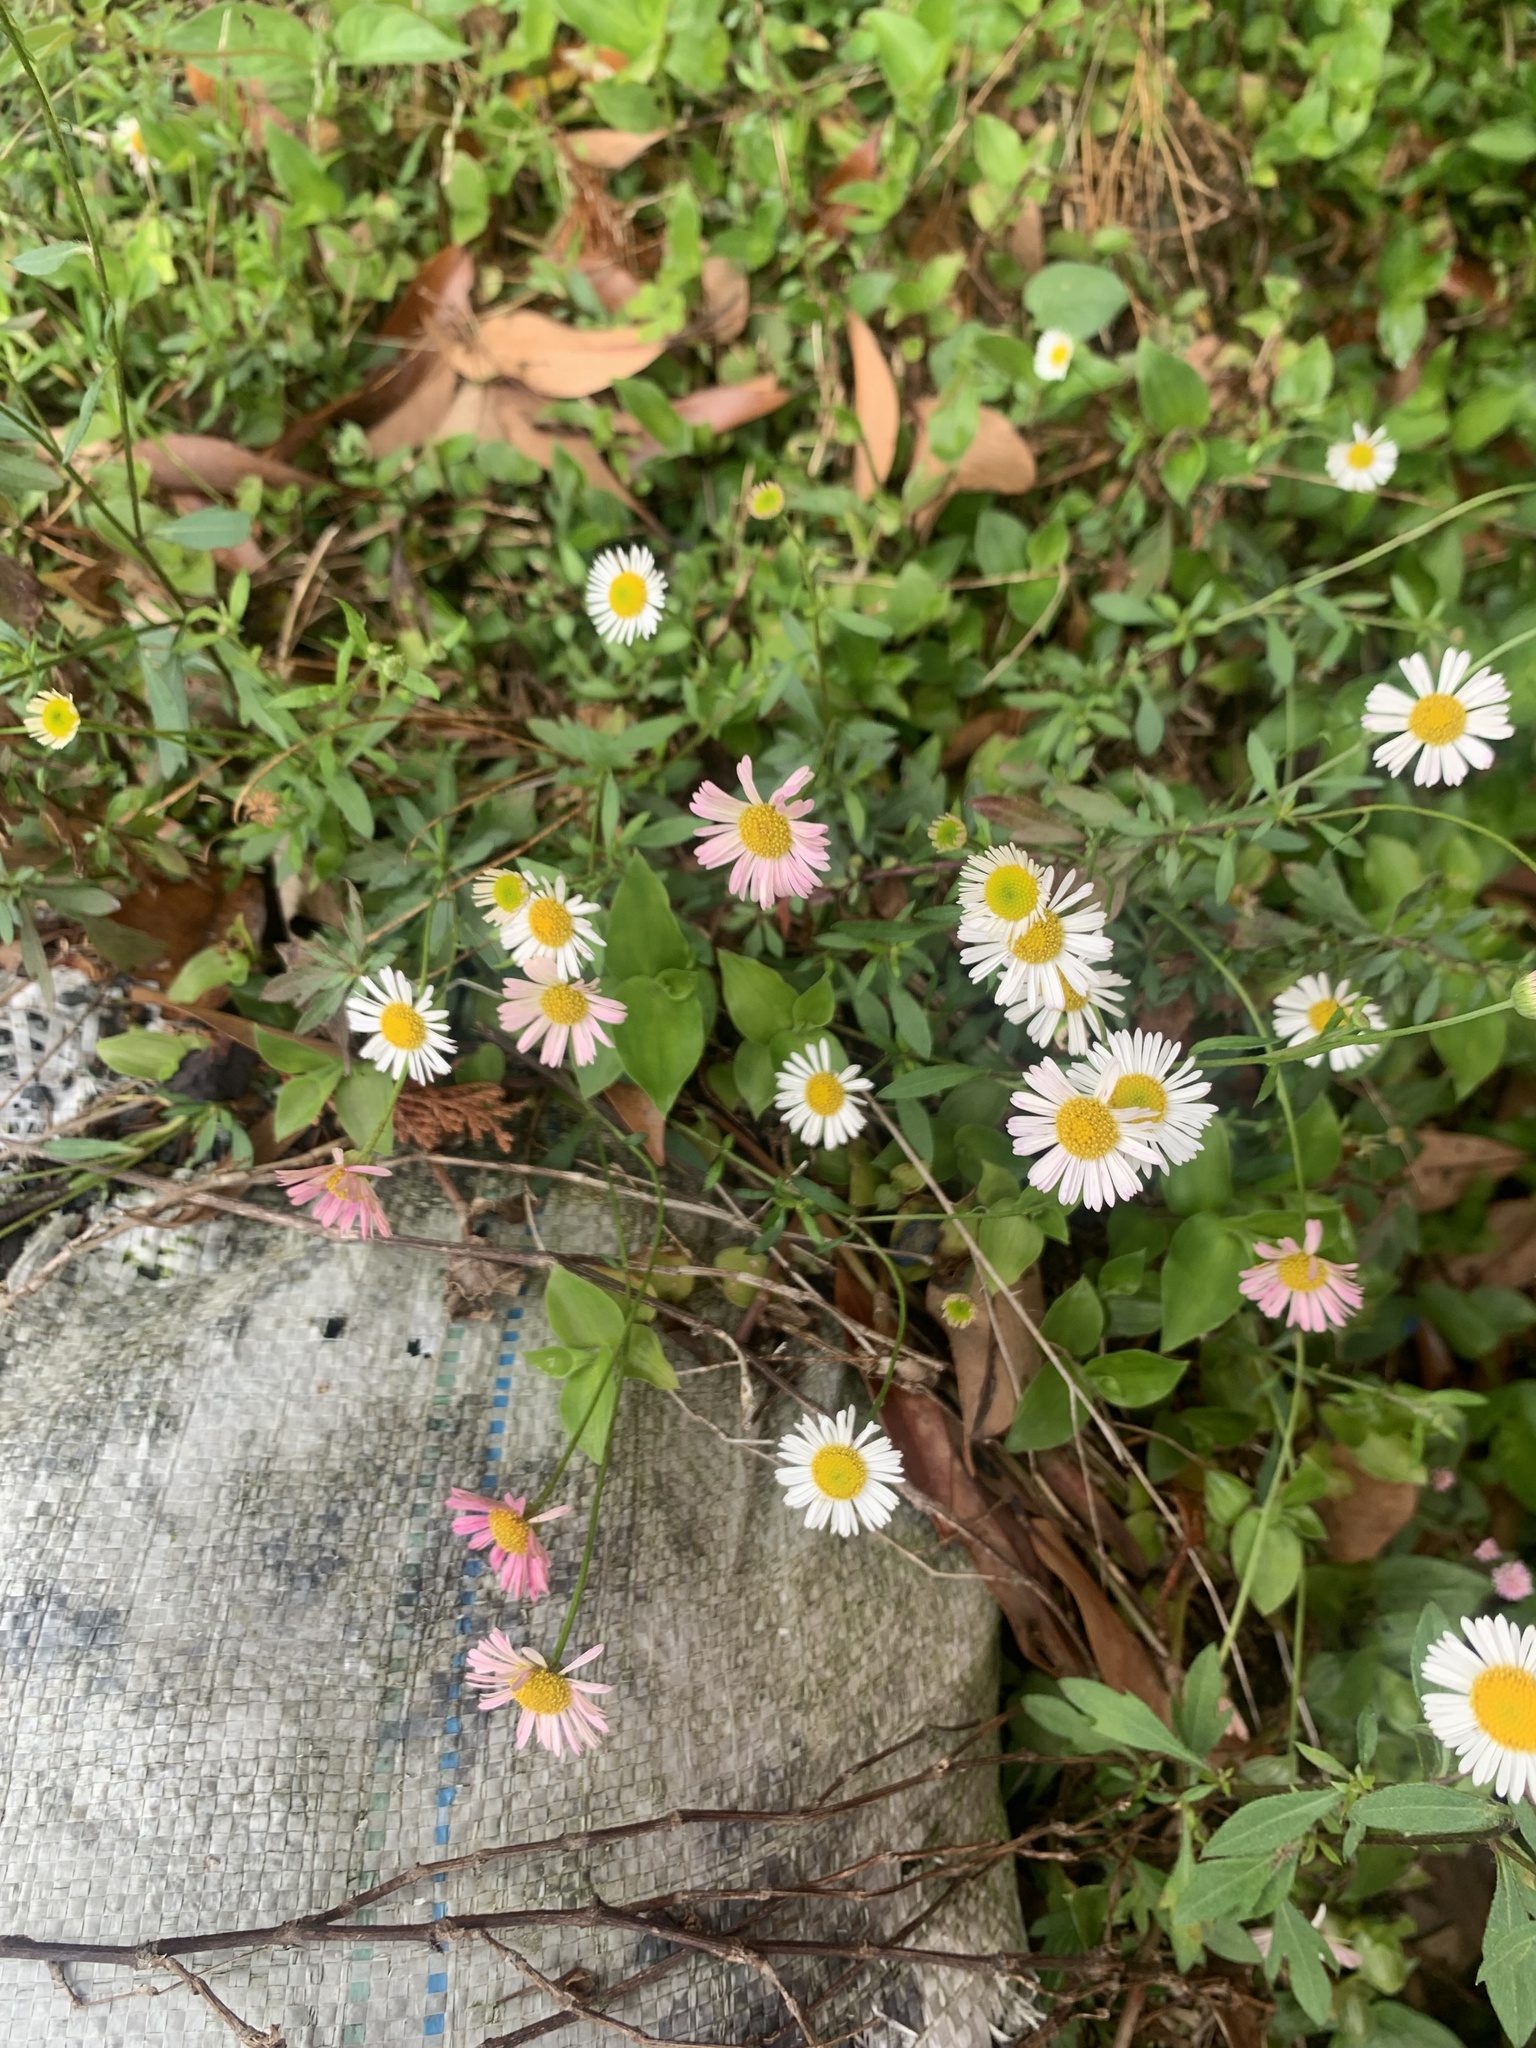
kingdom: Plantae
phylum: Tracheophyta
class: Magnoliopsida
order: Asterales
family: Asteraceae
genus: Erigeron
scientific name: Erigeron karvinskianus
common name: Mexican fleabane
